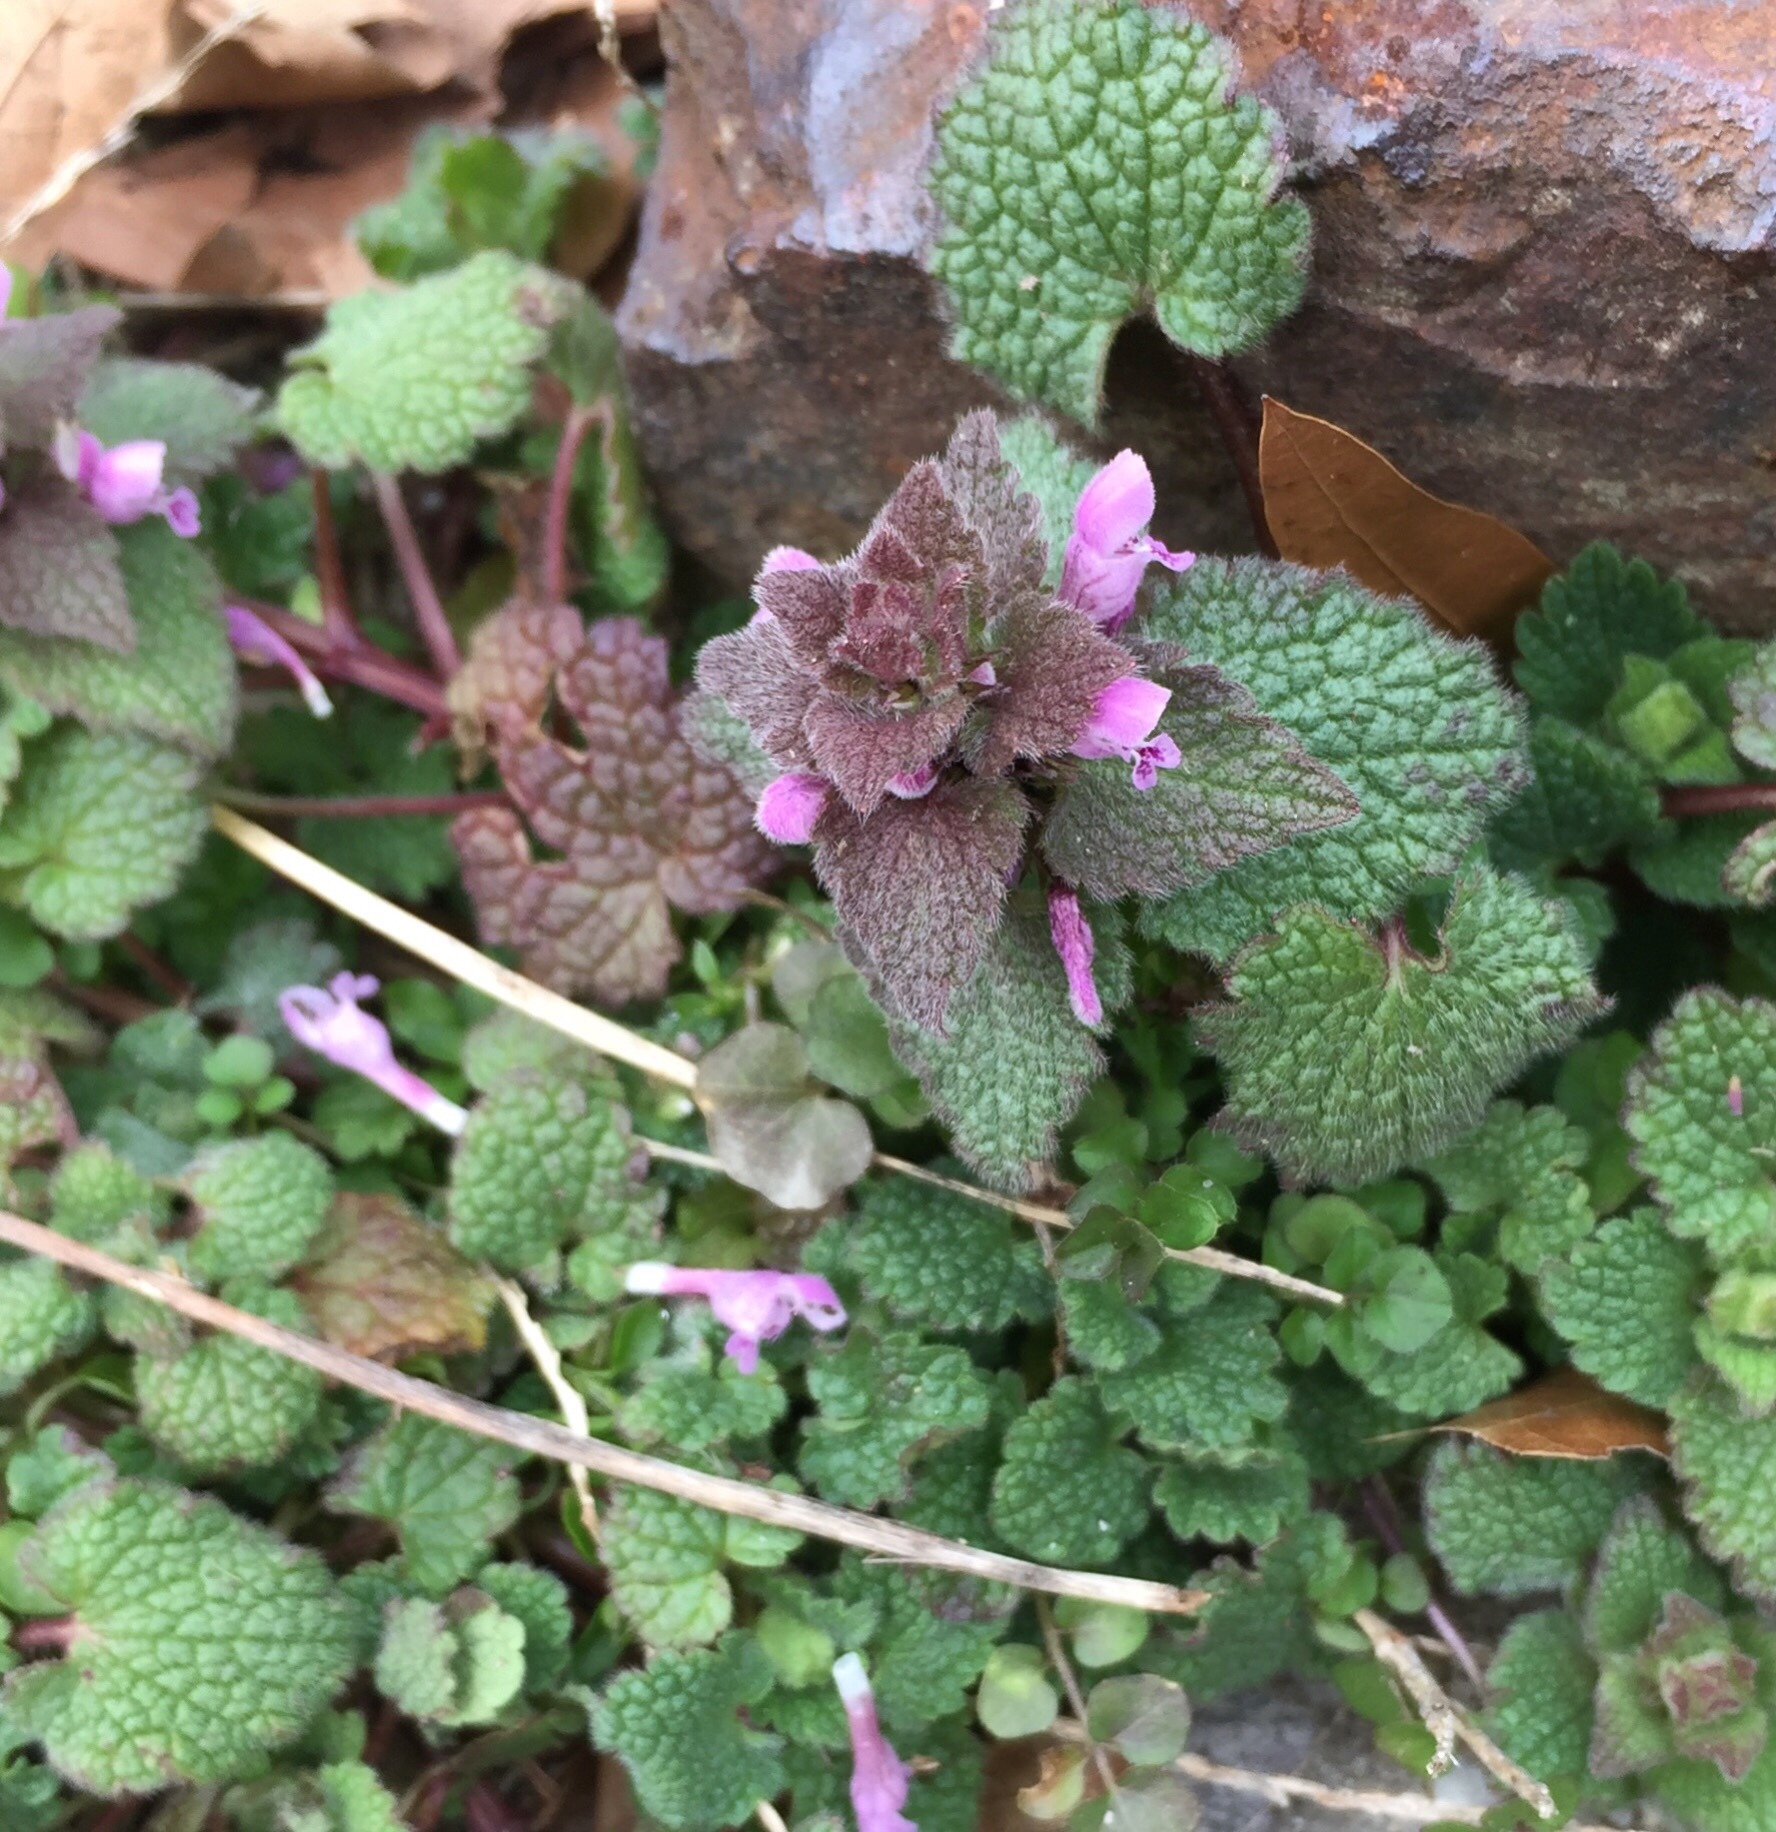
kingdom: Plantae
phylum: Tracheophyta
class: Magnoliopsida
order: Lamiales
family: Lamiaceae
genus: Lamium
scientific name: Lamium purpureum
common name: Red dead-nettle
